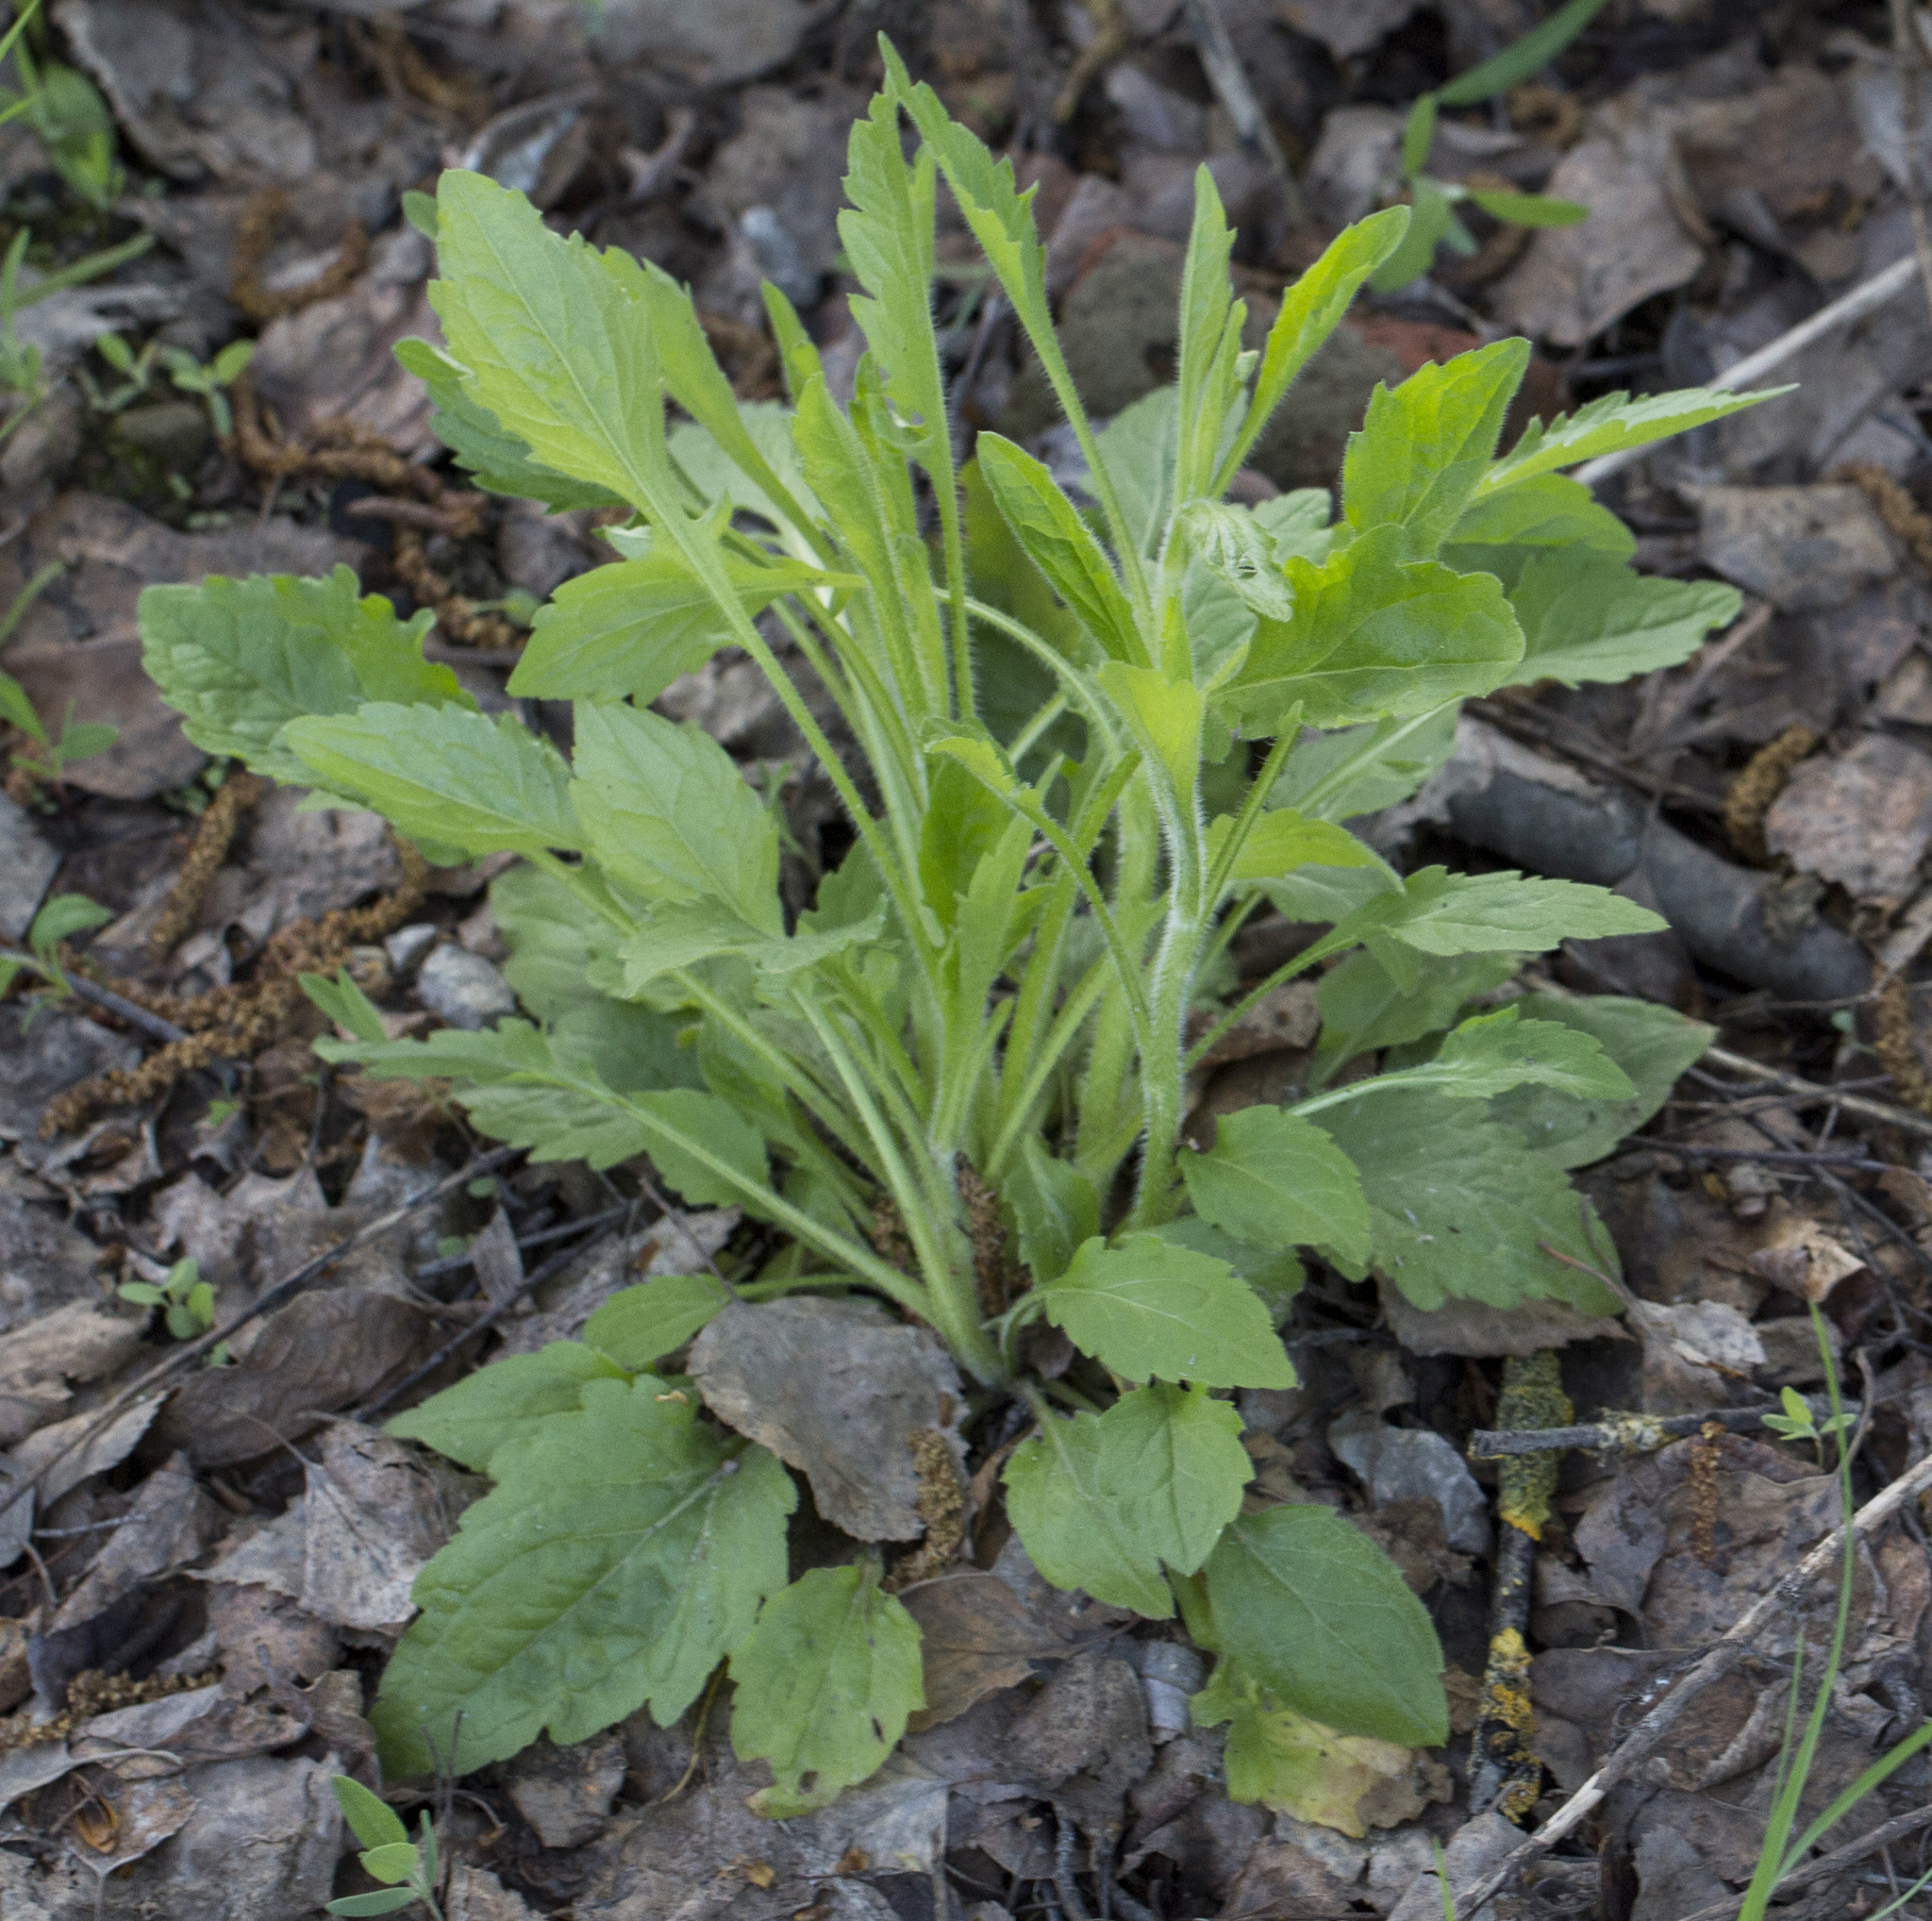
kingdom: Plantae
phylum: Tracheophyta
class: Magnoliopsida
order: Asterales
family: Asteraceae
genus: Erigeron
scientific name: Erigeron annuus
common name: Tall fleabane
